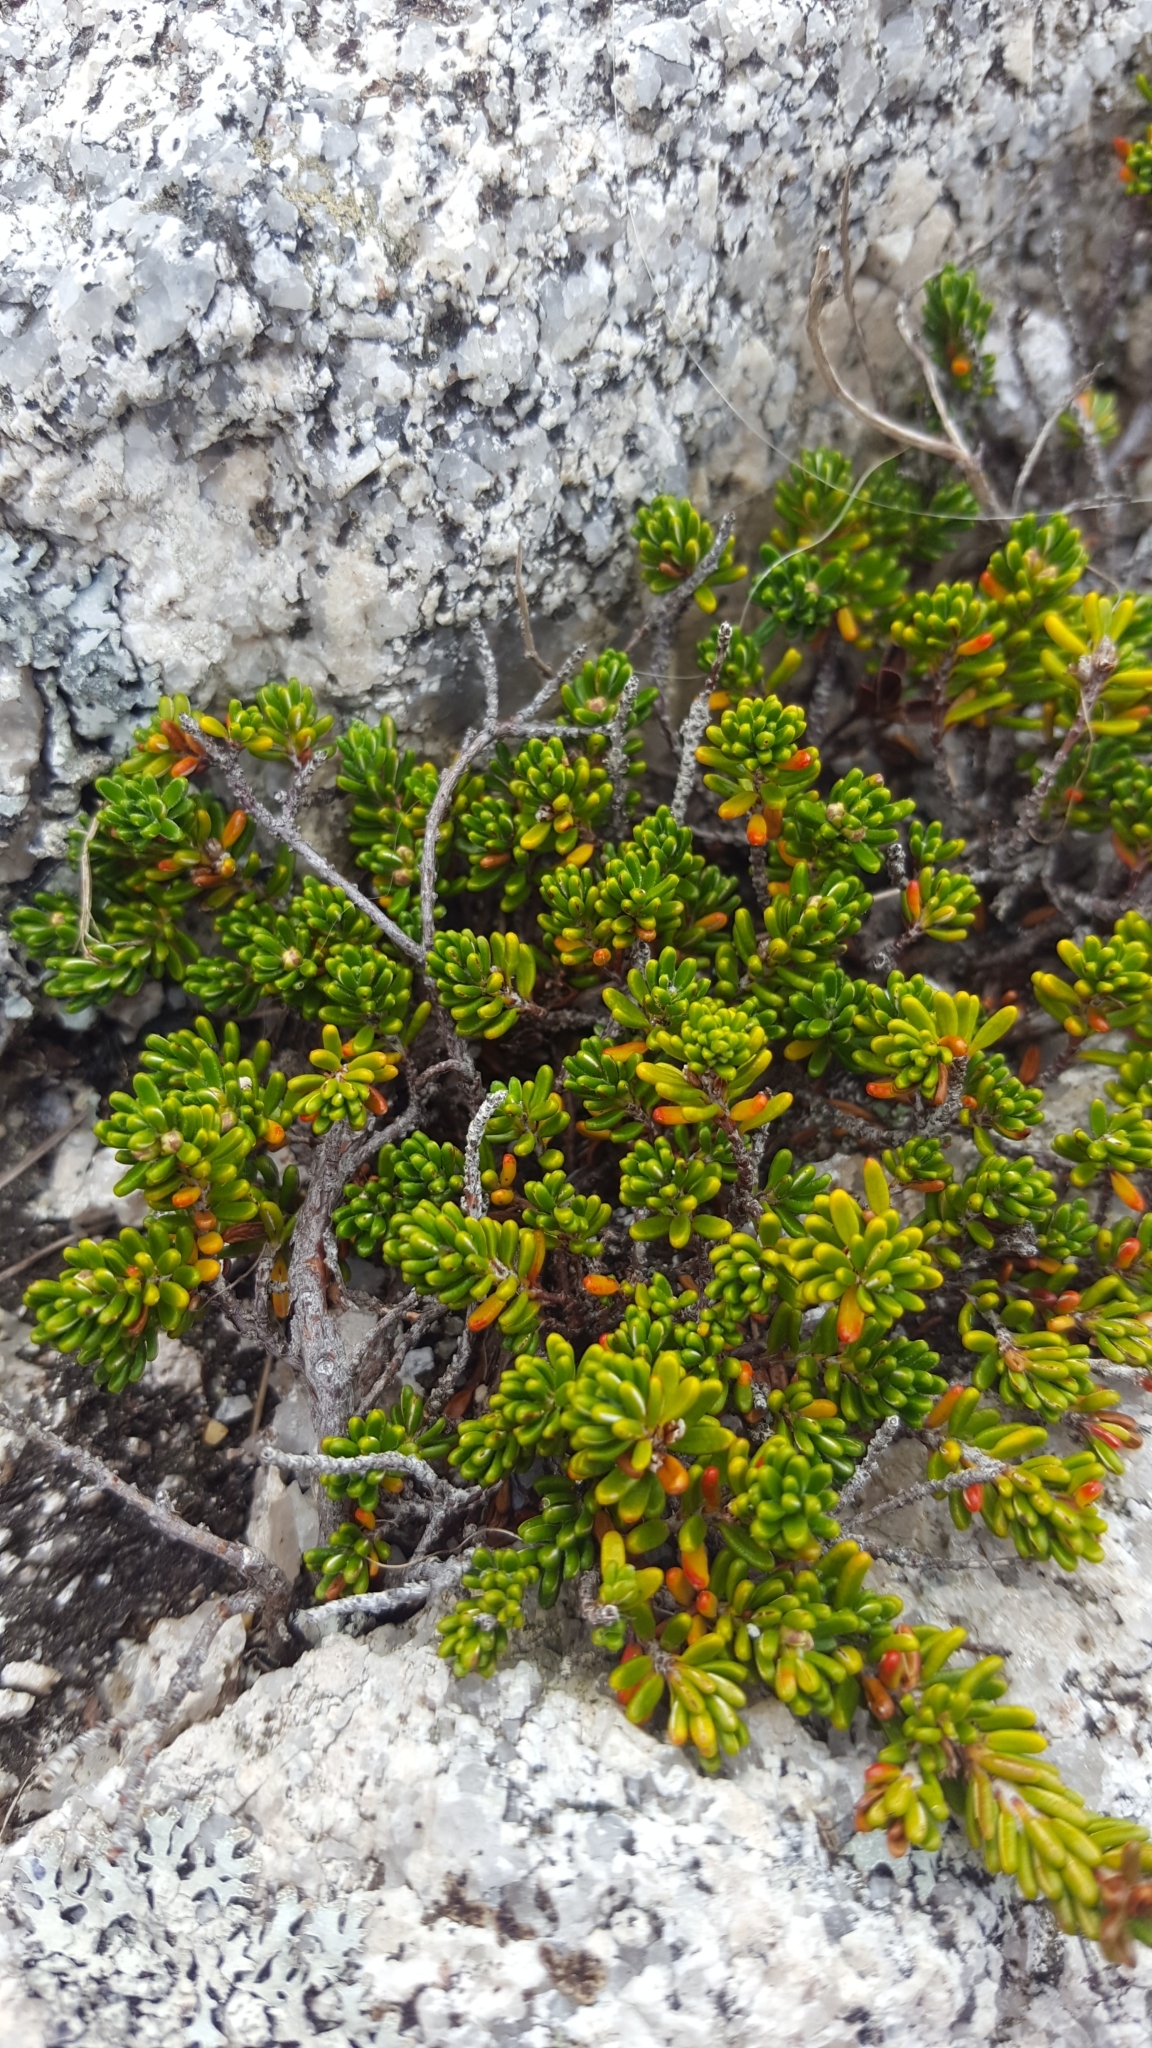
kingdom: Plantae
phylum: Tracheophyta
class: Magnoliopsida
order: Ericales
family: Ericaceae
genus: Empetrum
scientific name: Empetrum nigrum
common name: Black crowberry
